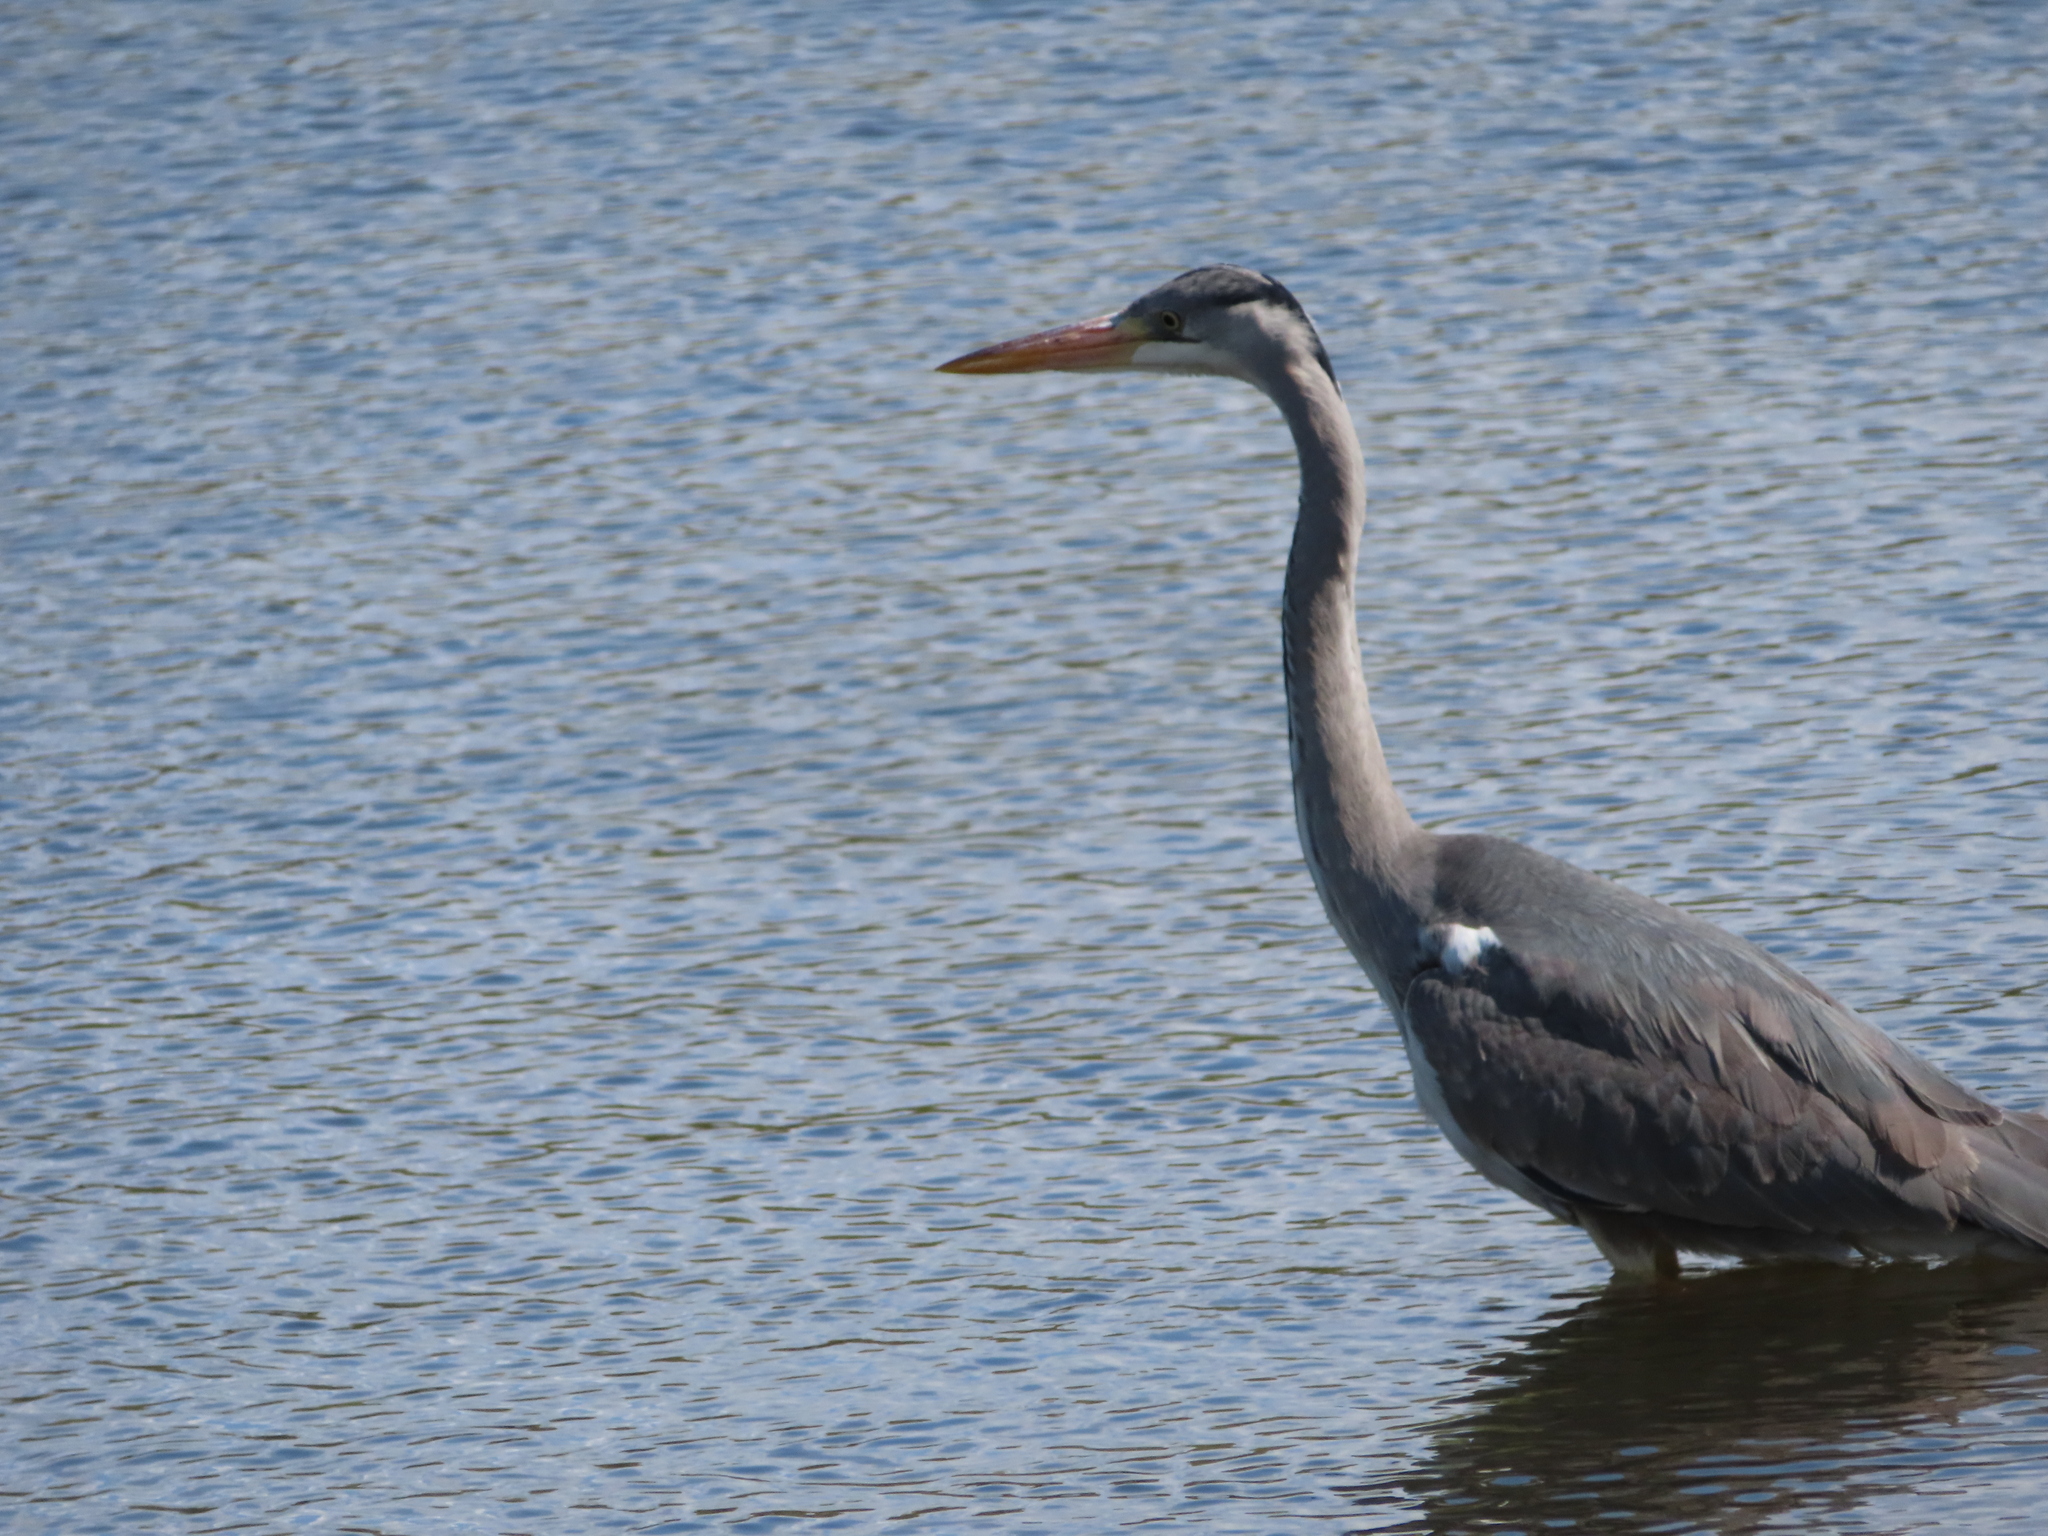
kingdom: Animalia
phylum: Chordata
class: Aves
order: Pelecaniformes
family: Ardeidae
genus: Ardea
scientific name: Ardea cinerea
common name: Grey heron
